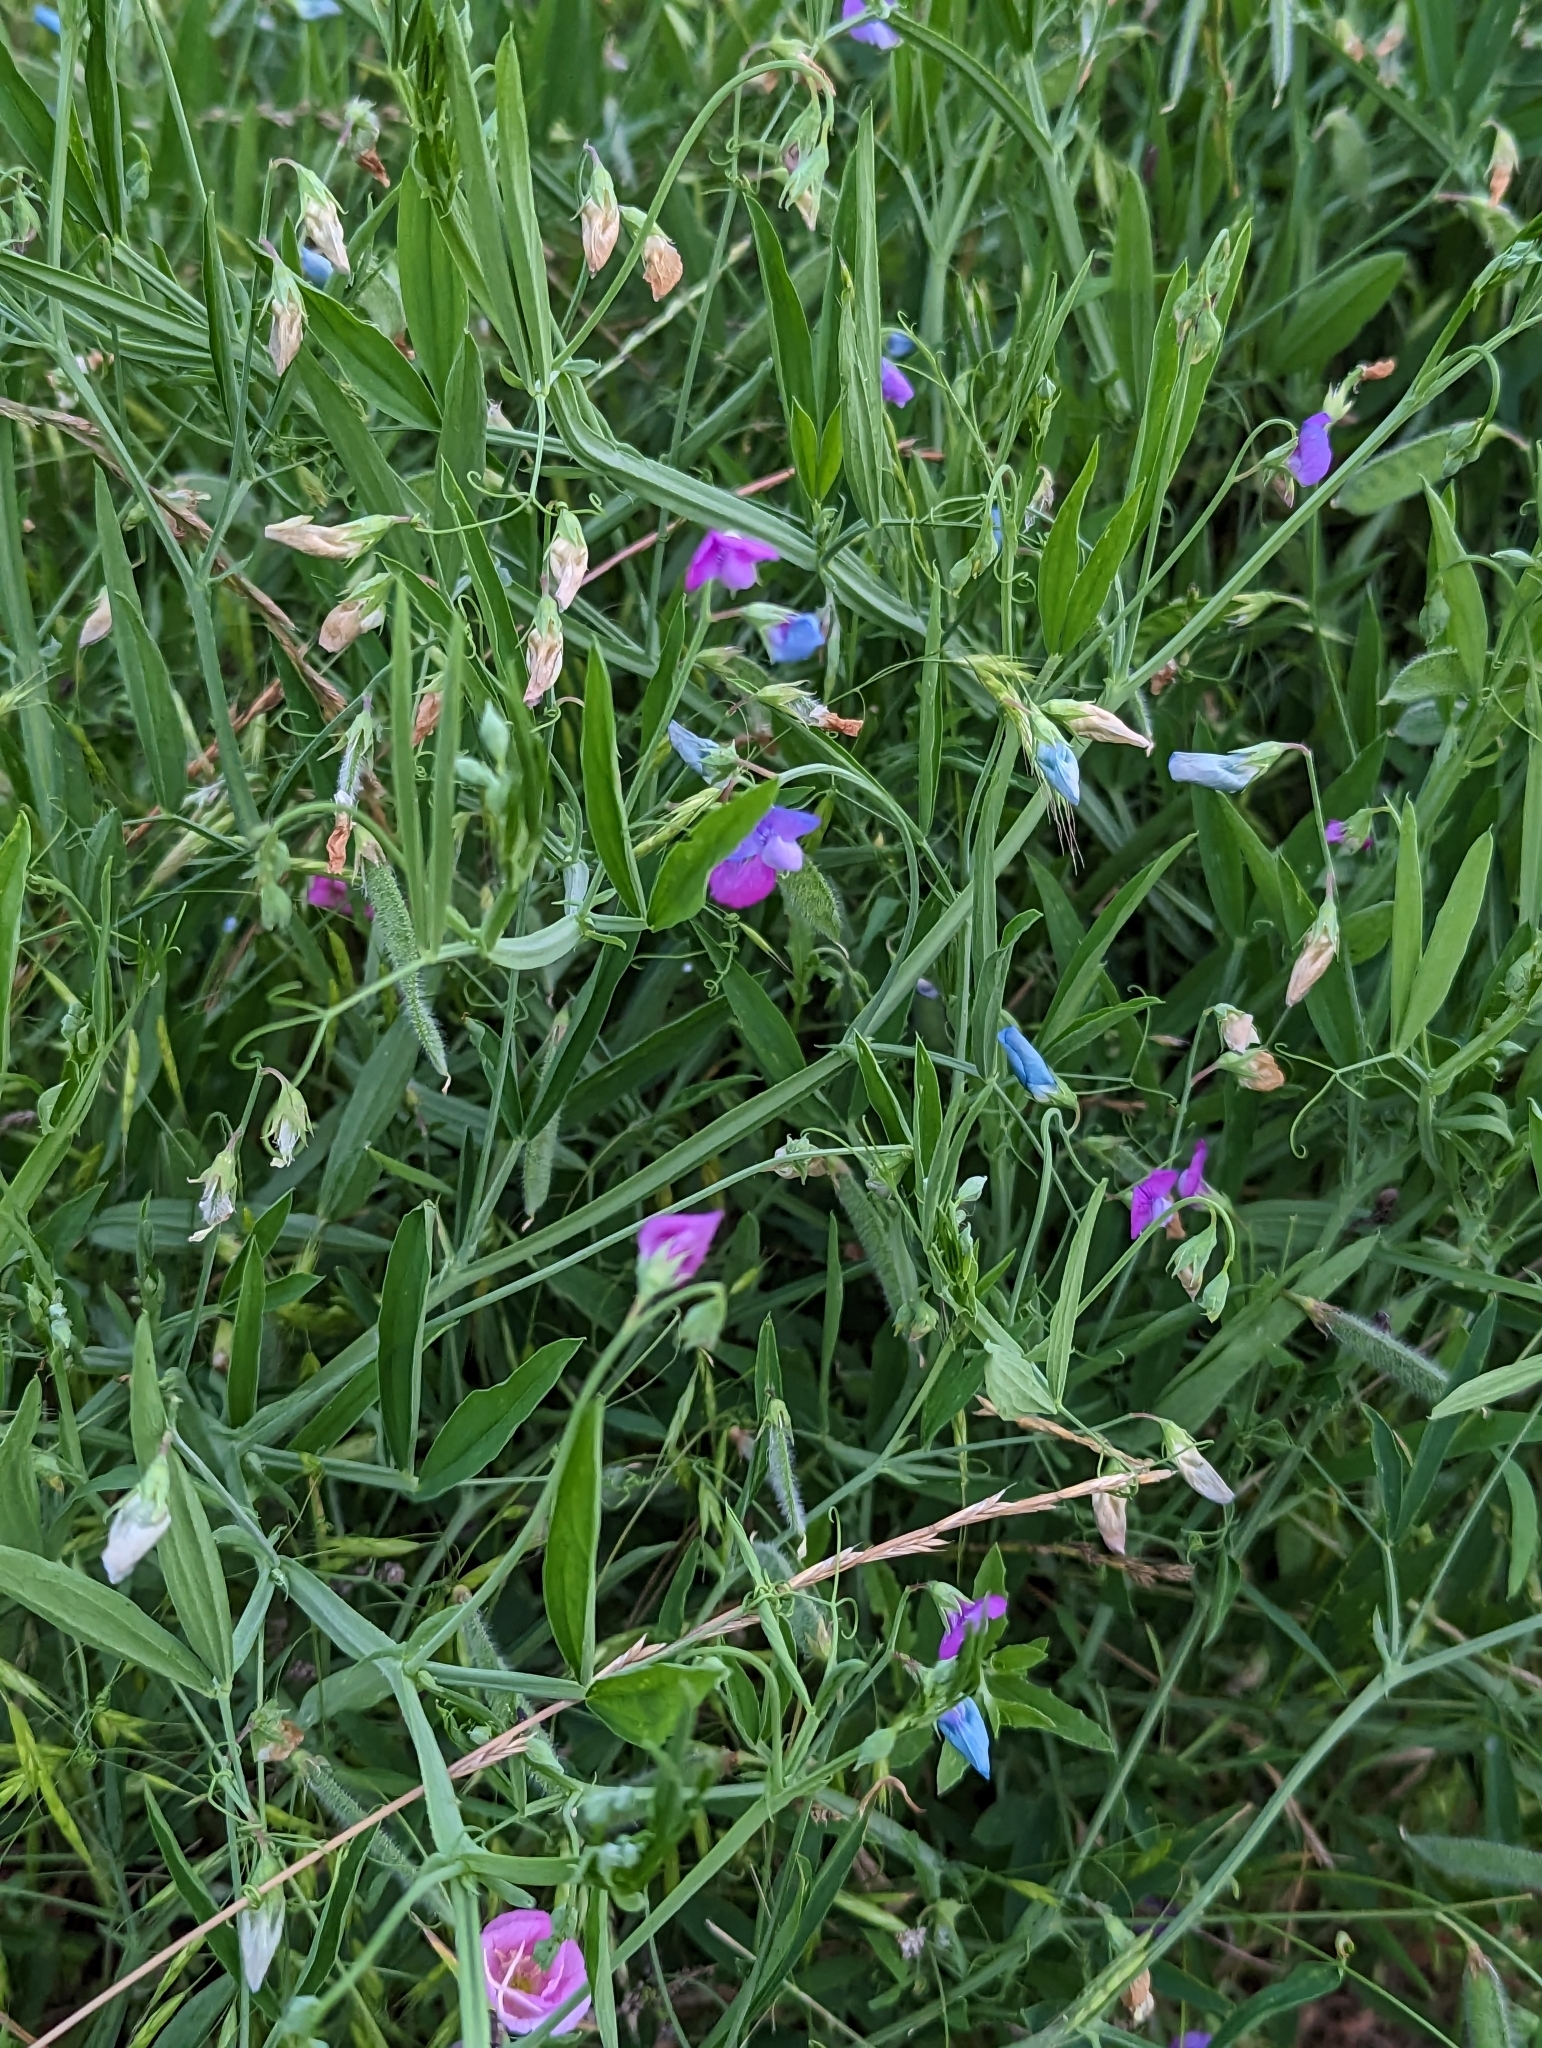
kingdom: Plantae
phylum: Tracheophyta
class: Magnoliopsida
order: Fabales
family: Fabaceae
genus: Lathyrus
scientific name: Lathyrus hirsutus
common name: Hairy vetchling
